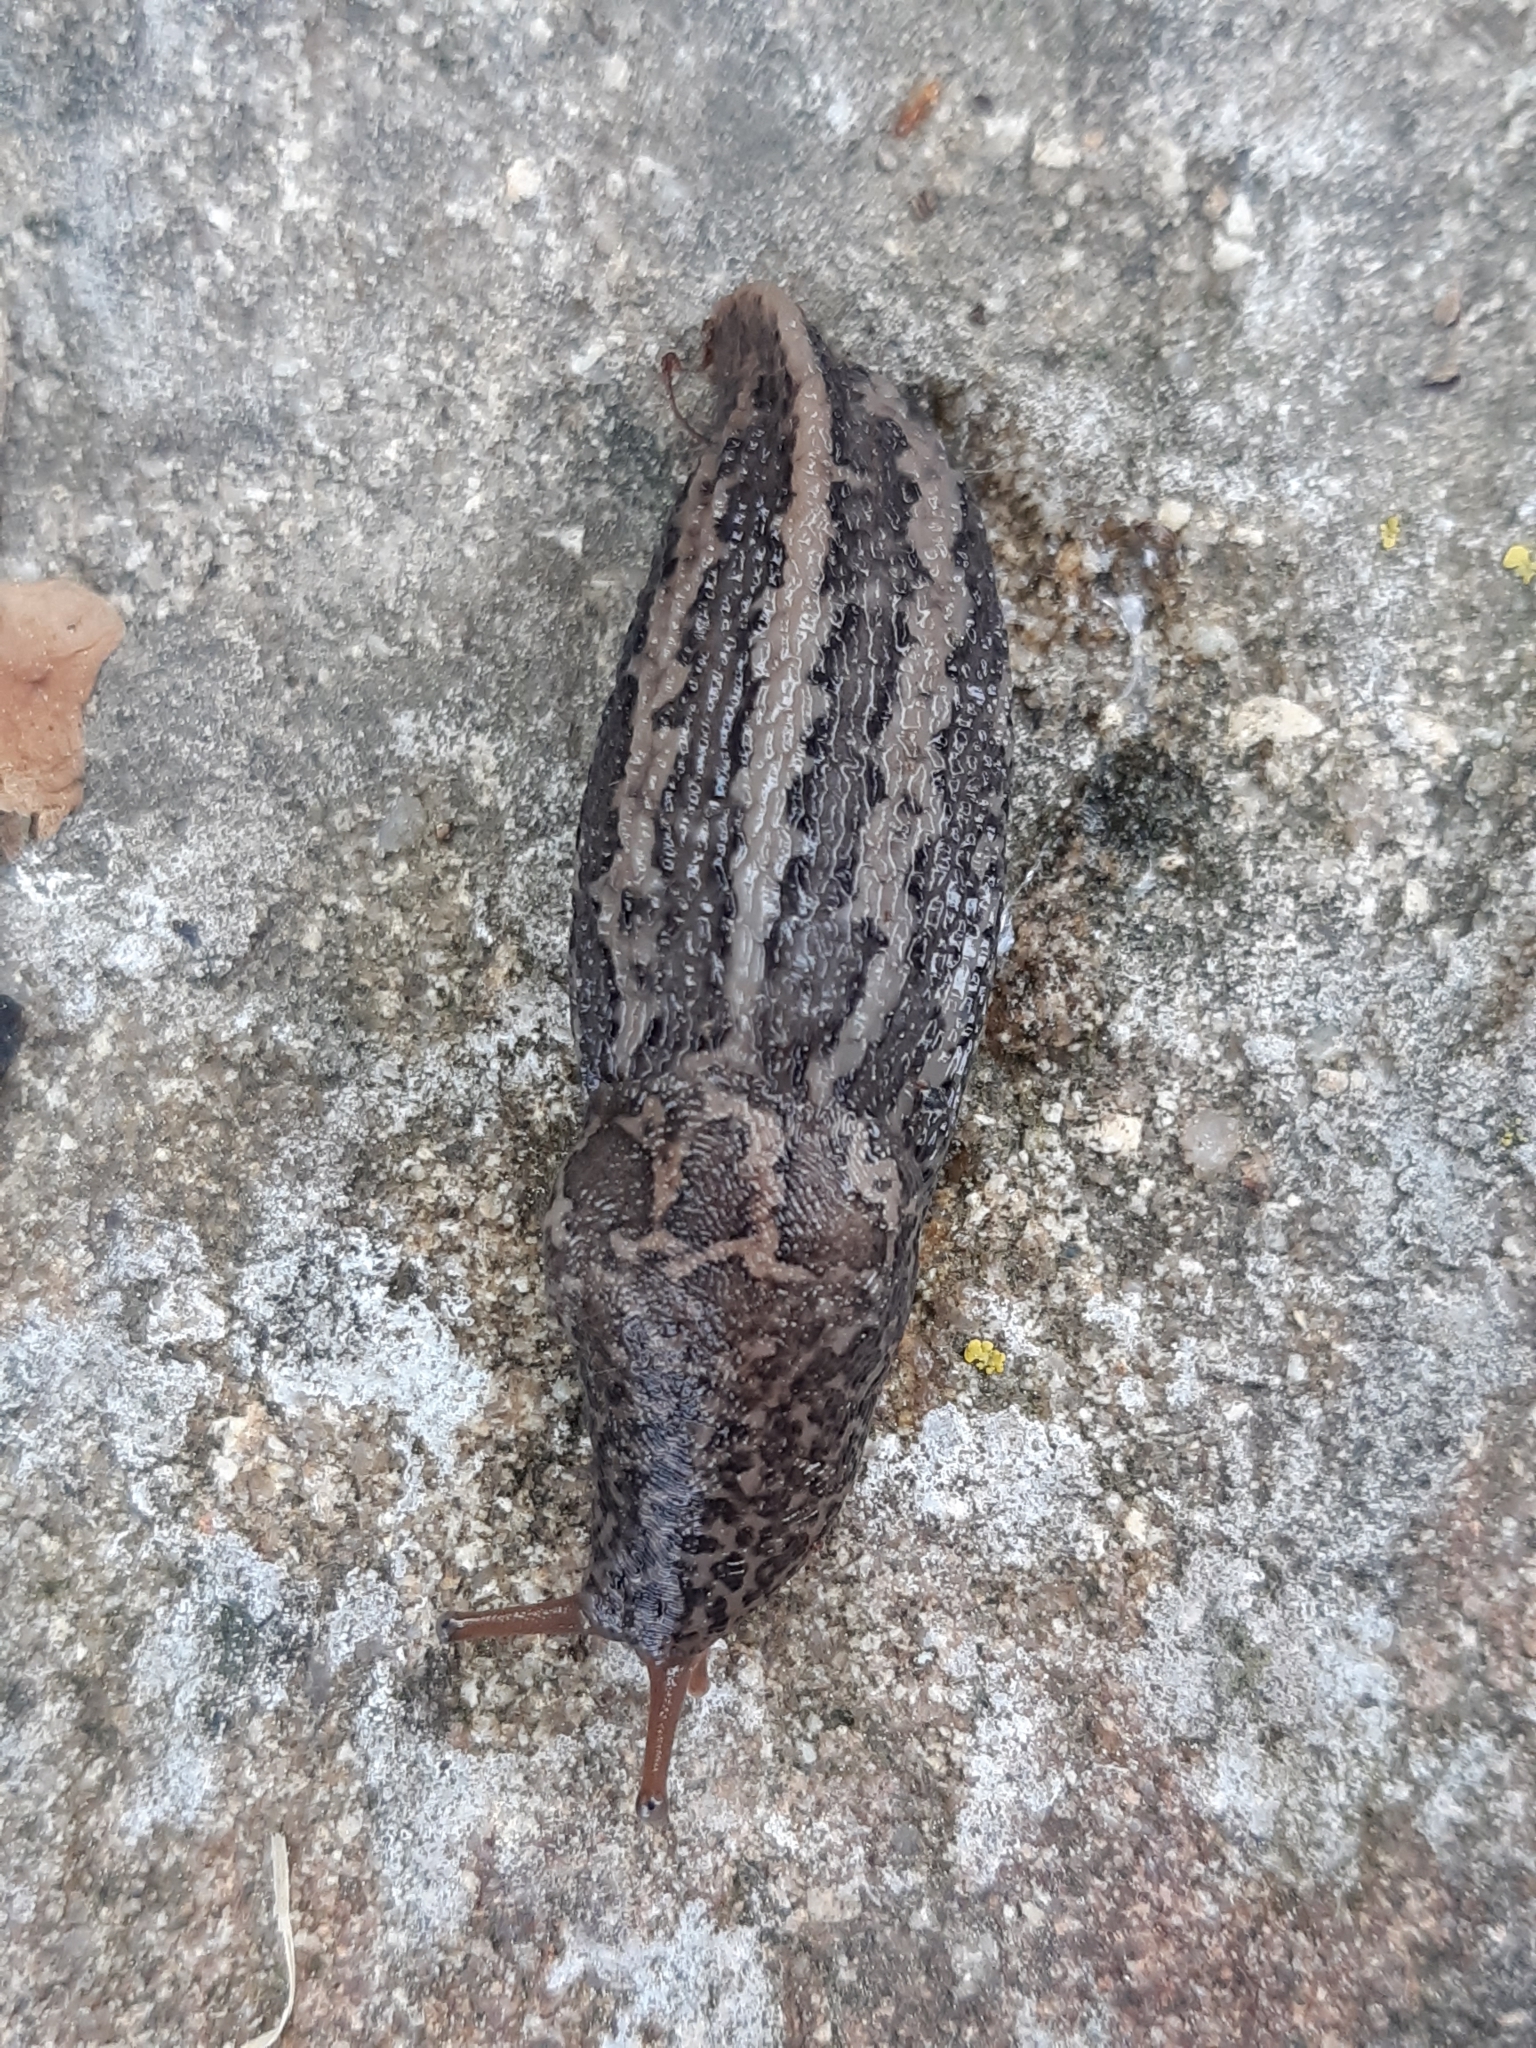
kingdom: Animalia
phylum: Mollusca
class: Gastropoda
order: Stylommatophora
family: Limacidae
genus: Limax
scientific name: Limax maximus
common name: Great grey slug
